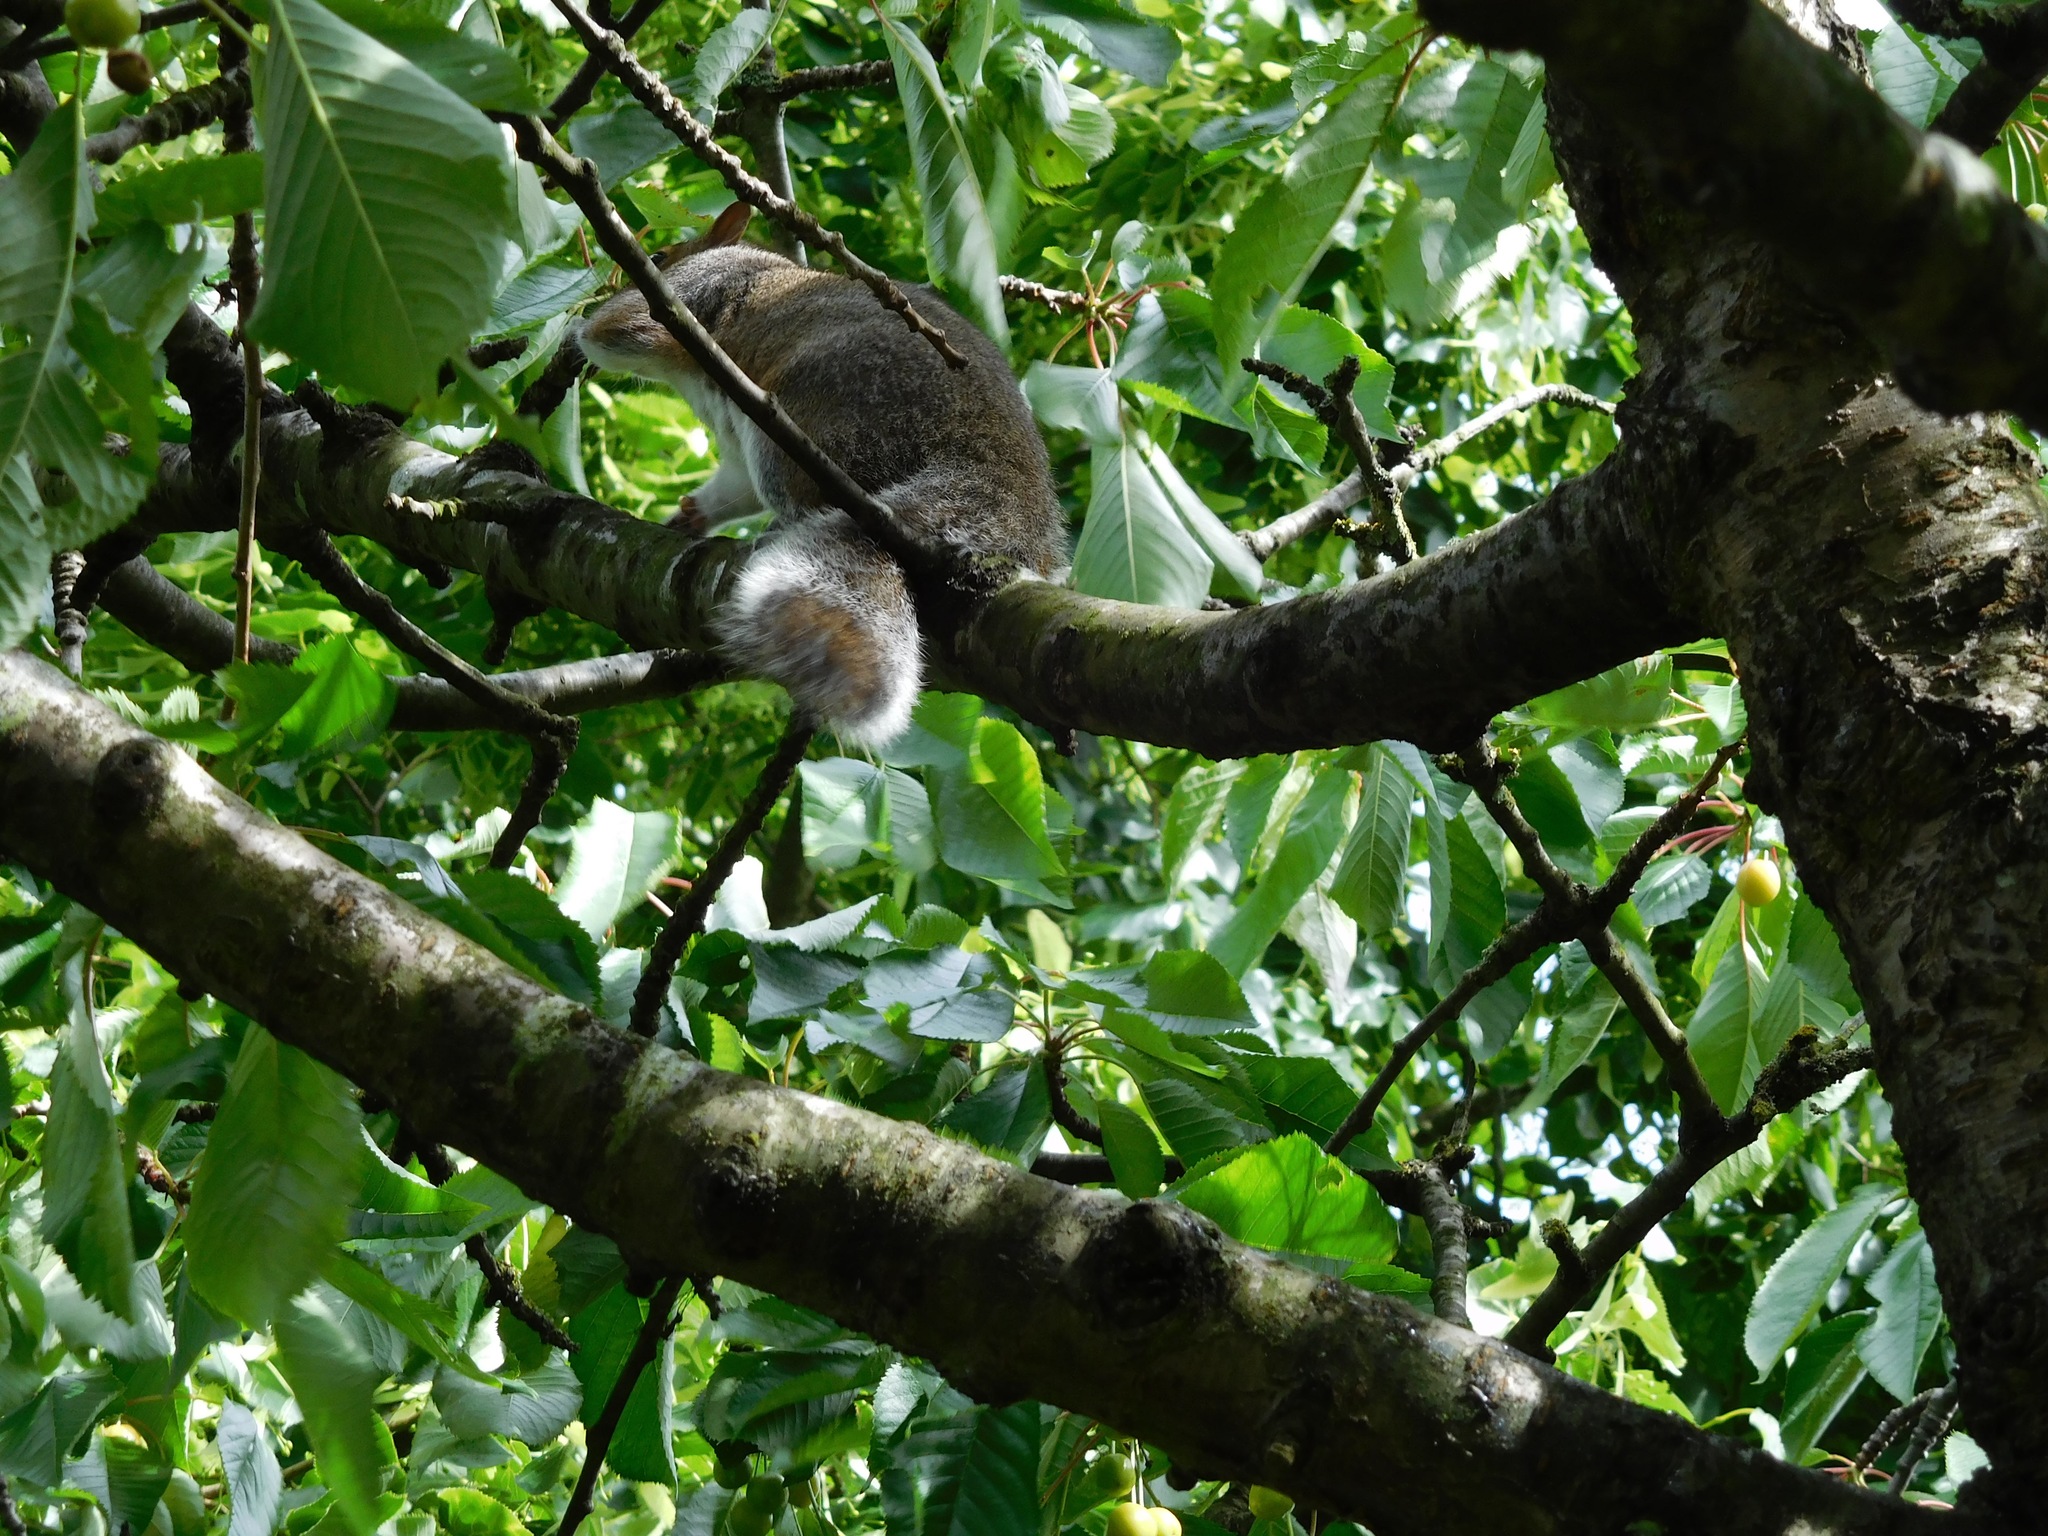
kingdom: Animalia
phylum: Chordata
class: Mammalia
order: Rodentia
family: Sciuridae
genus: Sciurus
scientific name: Sciurus carolinensis
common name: Eastern gray squirrel
